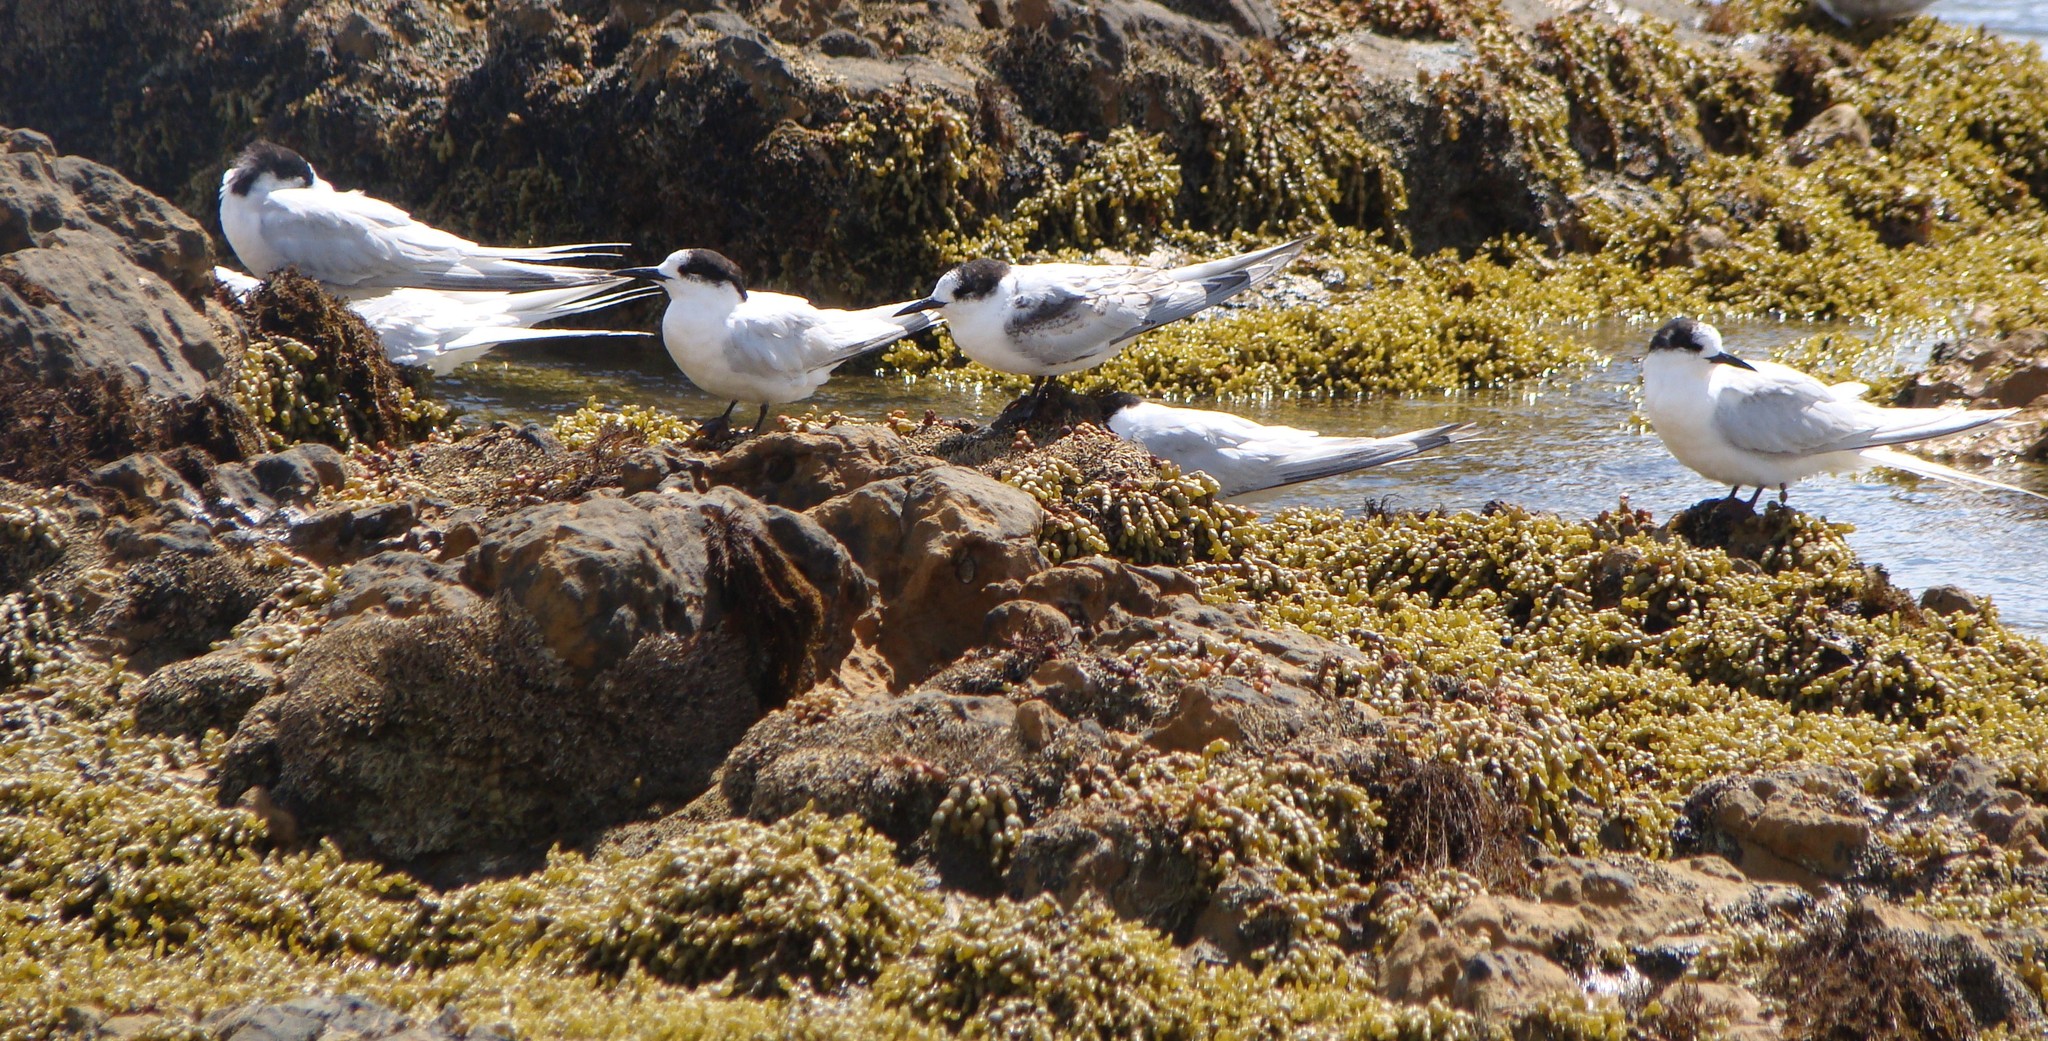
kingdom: Animalia
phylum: Chordata
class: Aves
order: Charadriiformes
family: Laridae
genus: Sterna
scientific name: Sterna striata
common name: White-fronted tern
